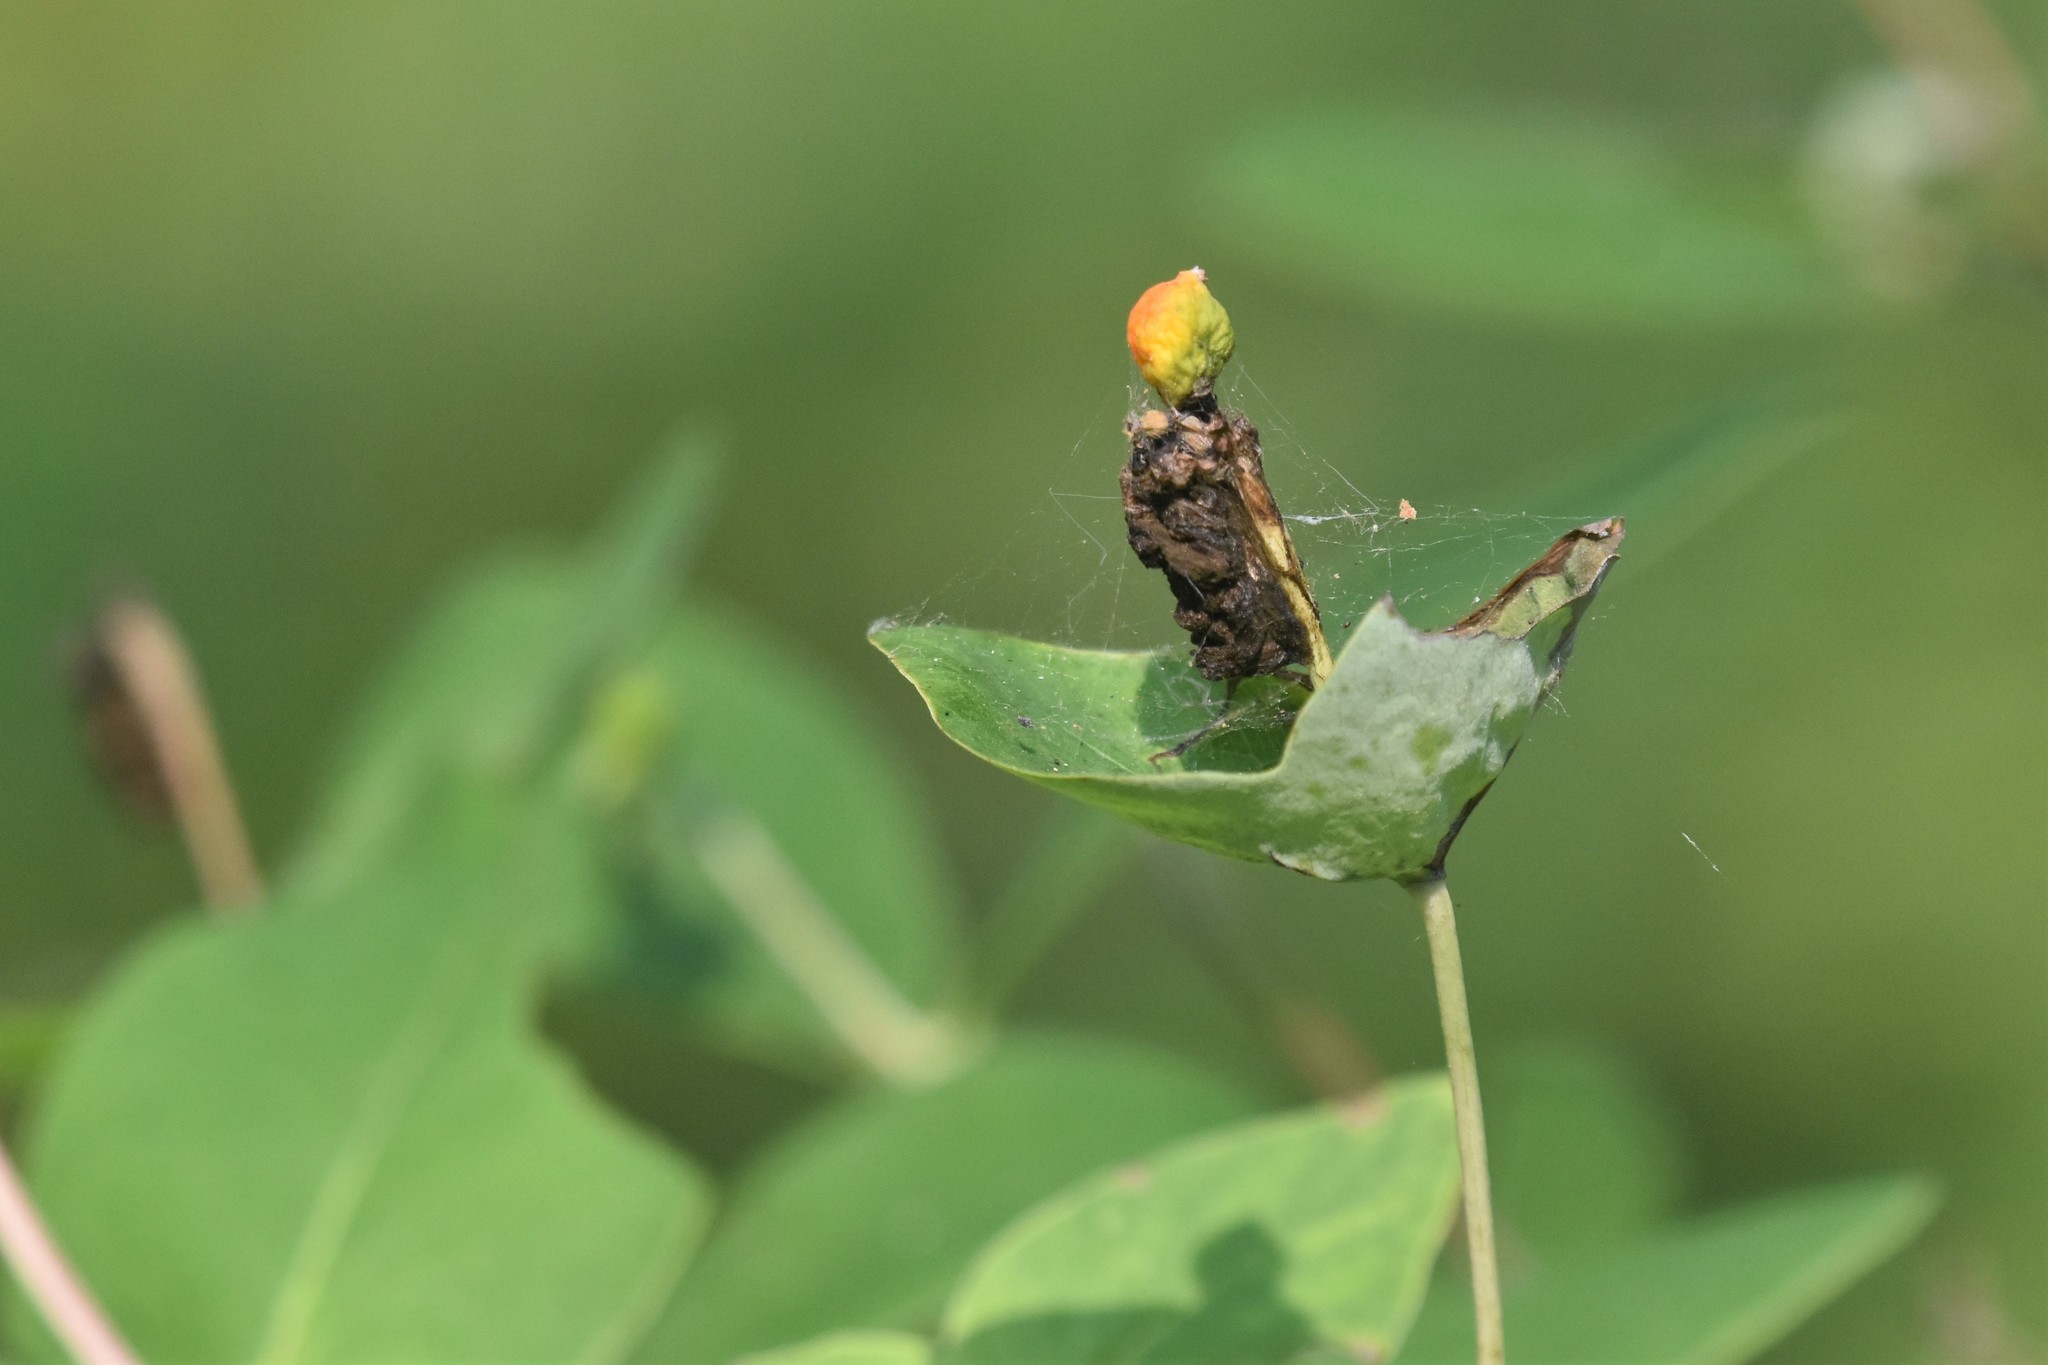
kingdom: Plantae
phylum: Tracheophyta
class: Magnoliopsida
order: Dipsacales
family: Caprifoliaceae
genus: Lonicera
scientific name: Lonicera dioica
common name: Limber honeysuckle
